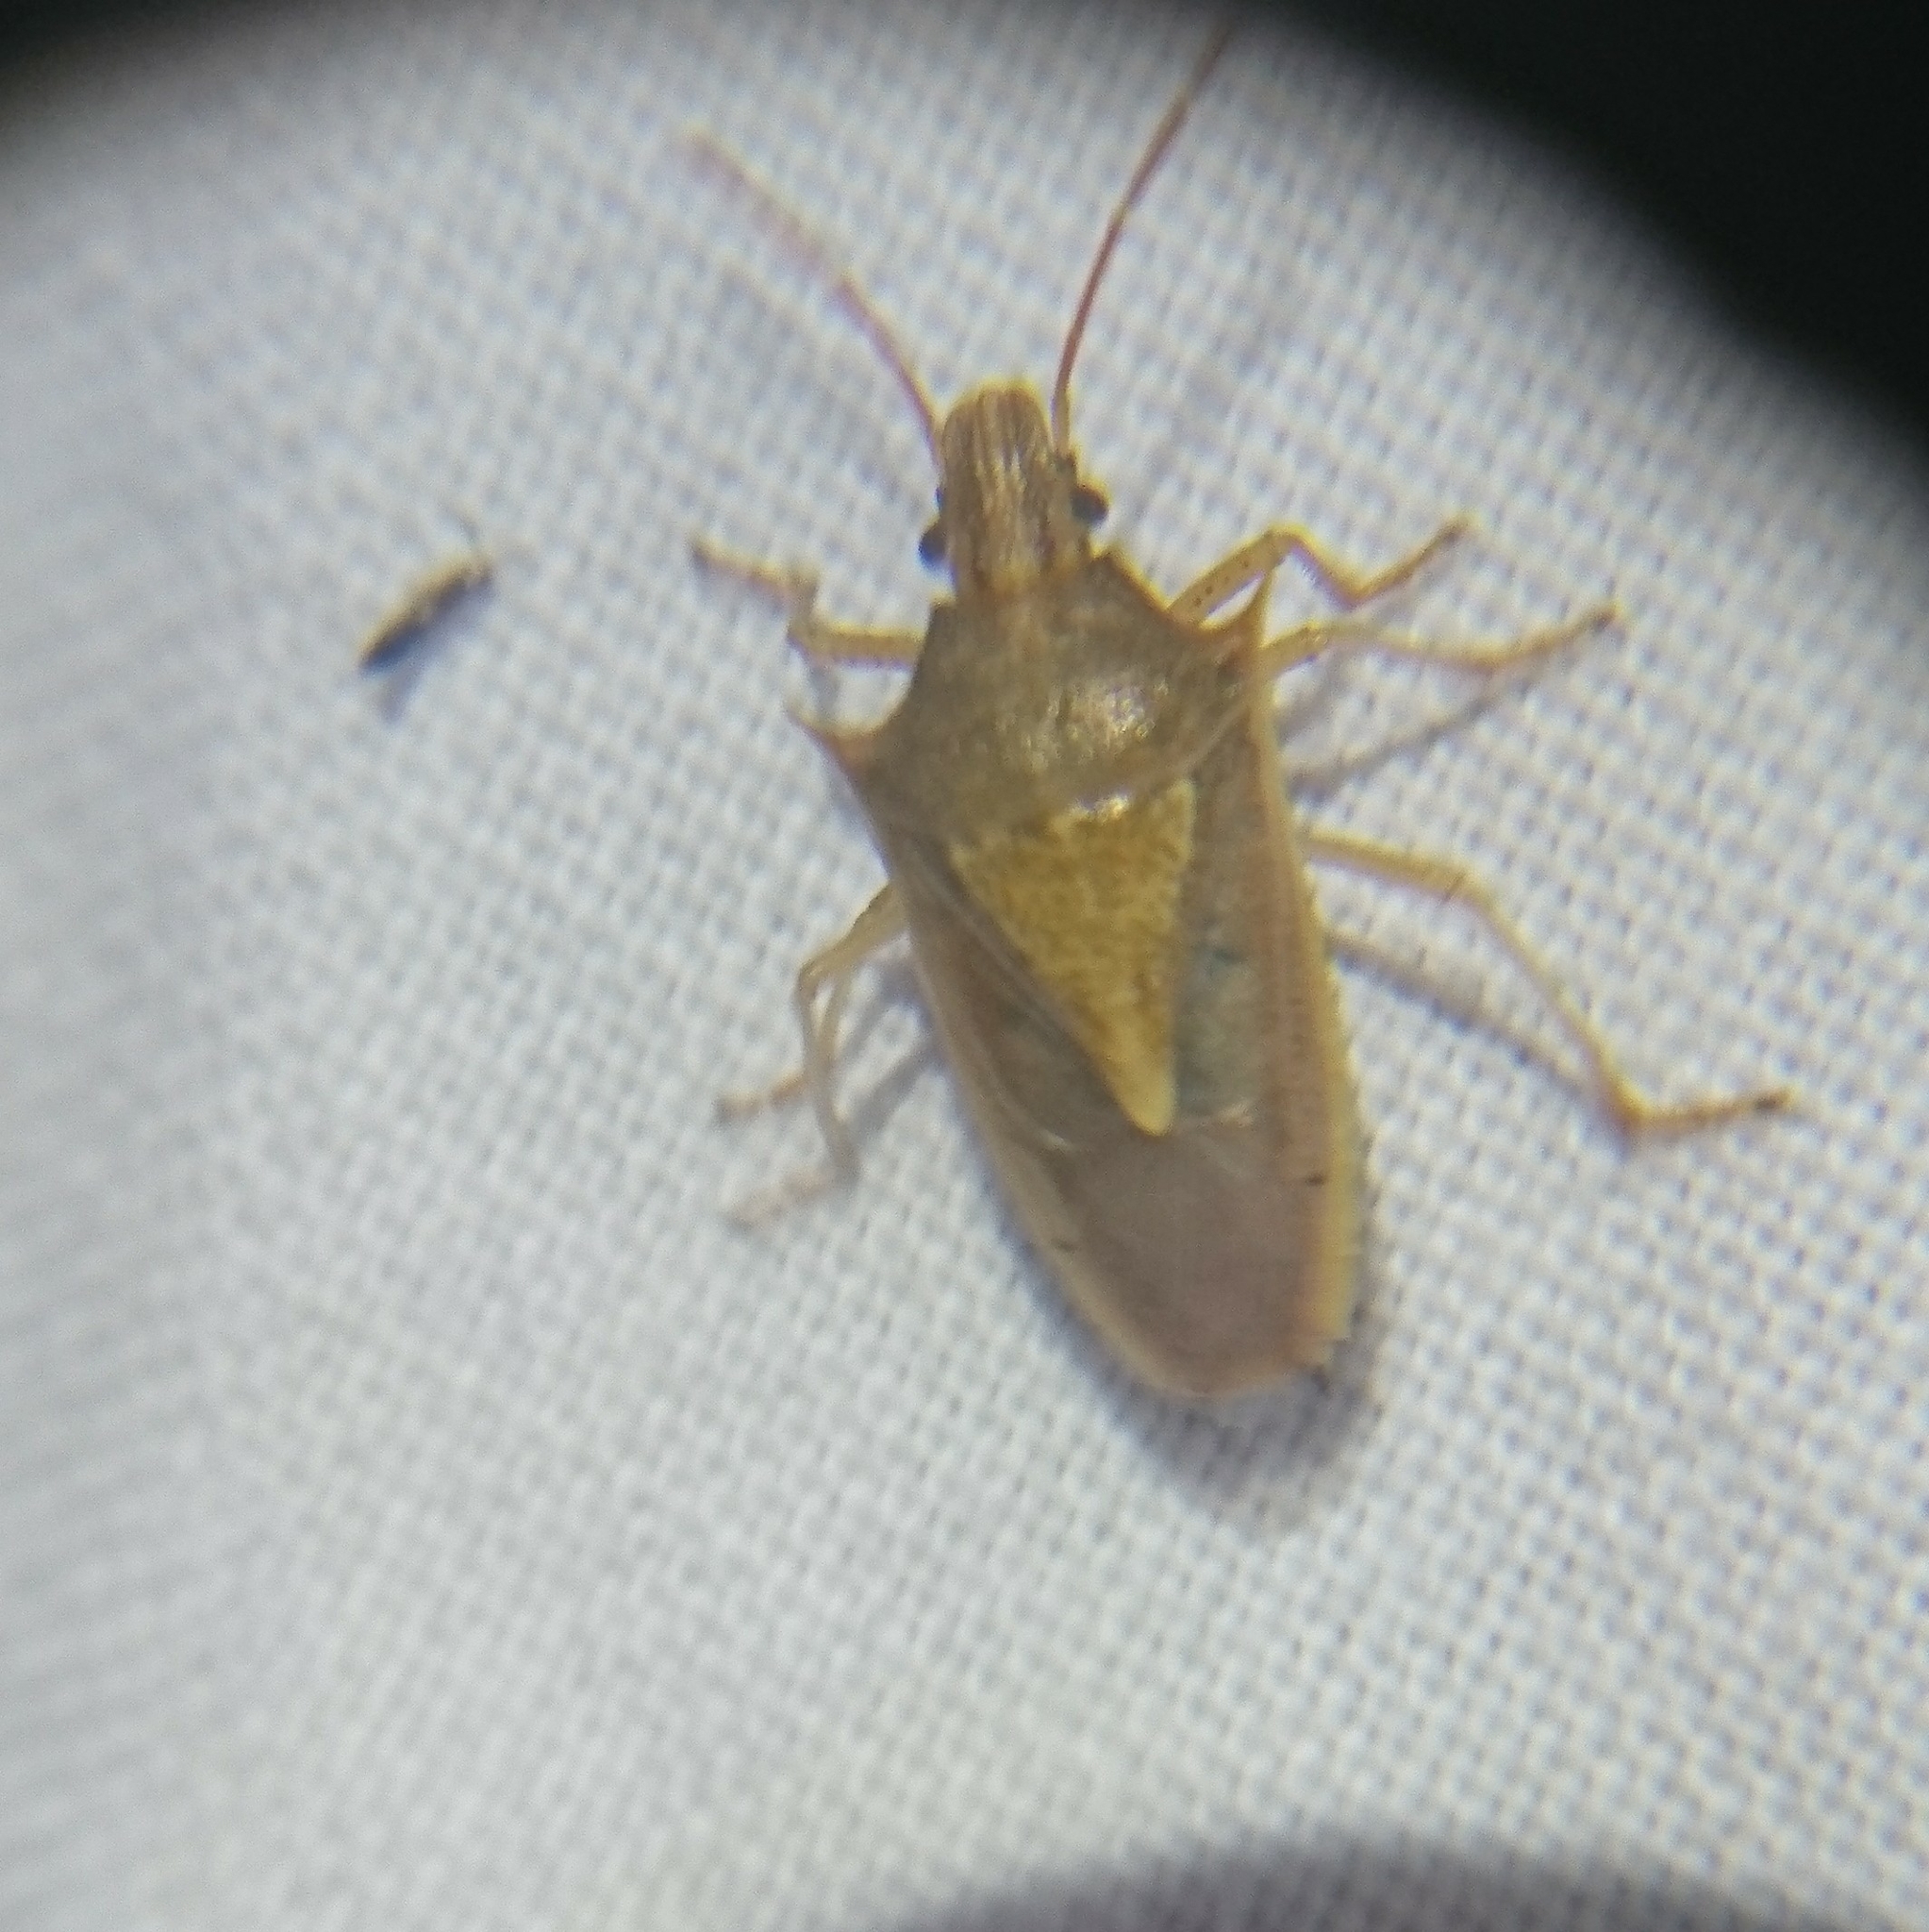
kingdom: Animalia
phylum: Arthropoda
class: Insecta
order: Hemiptera
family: Pentatomidae
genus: Oebalus
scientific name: Oebalus pugnax
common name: Rice stink bug
